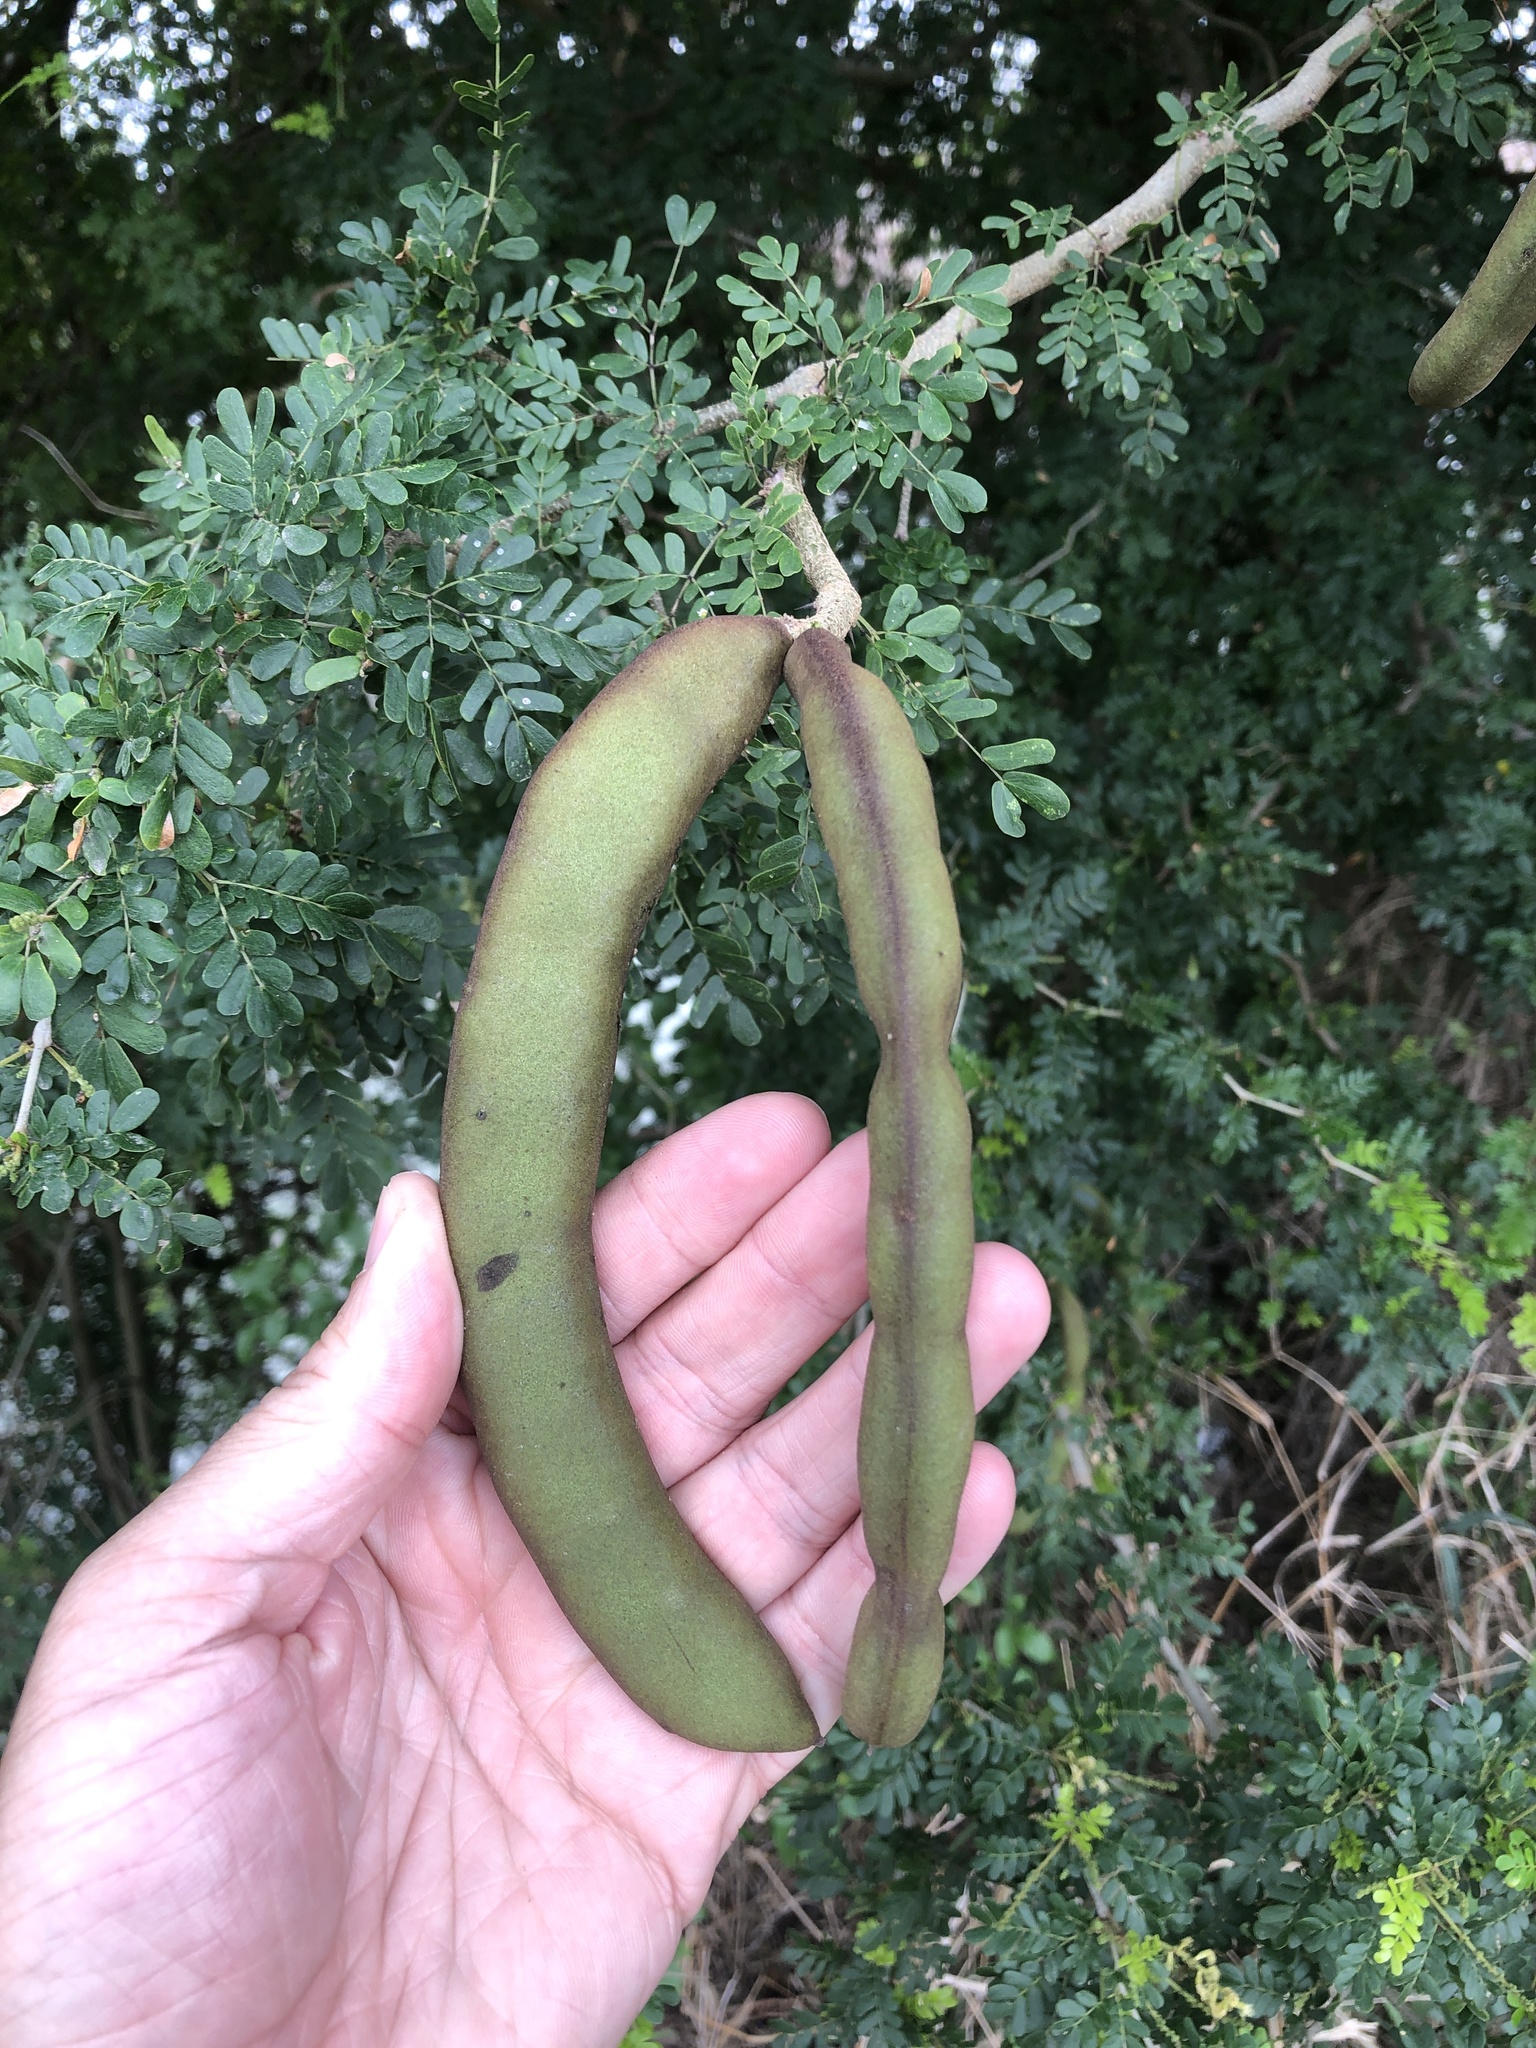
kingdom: Plantae
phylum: Tracheophyta
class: Magnoliopsida
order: Fabales
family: Fabaceae
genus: Ebenopsis
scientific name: Ebenopsis ebano
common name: Ebony blackbead
